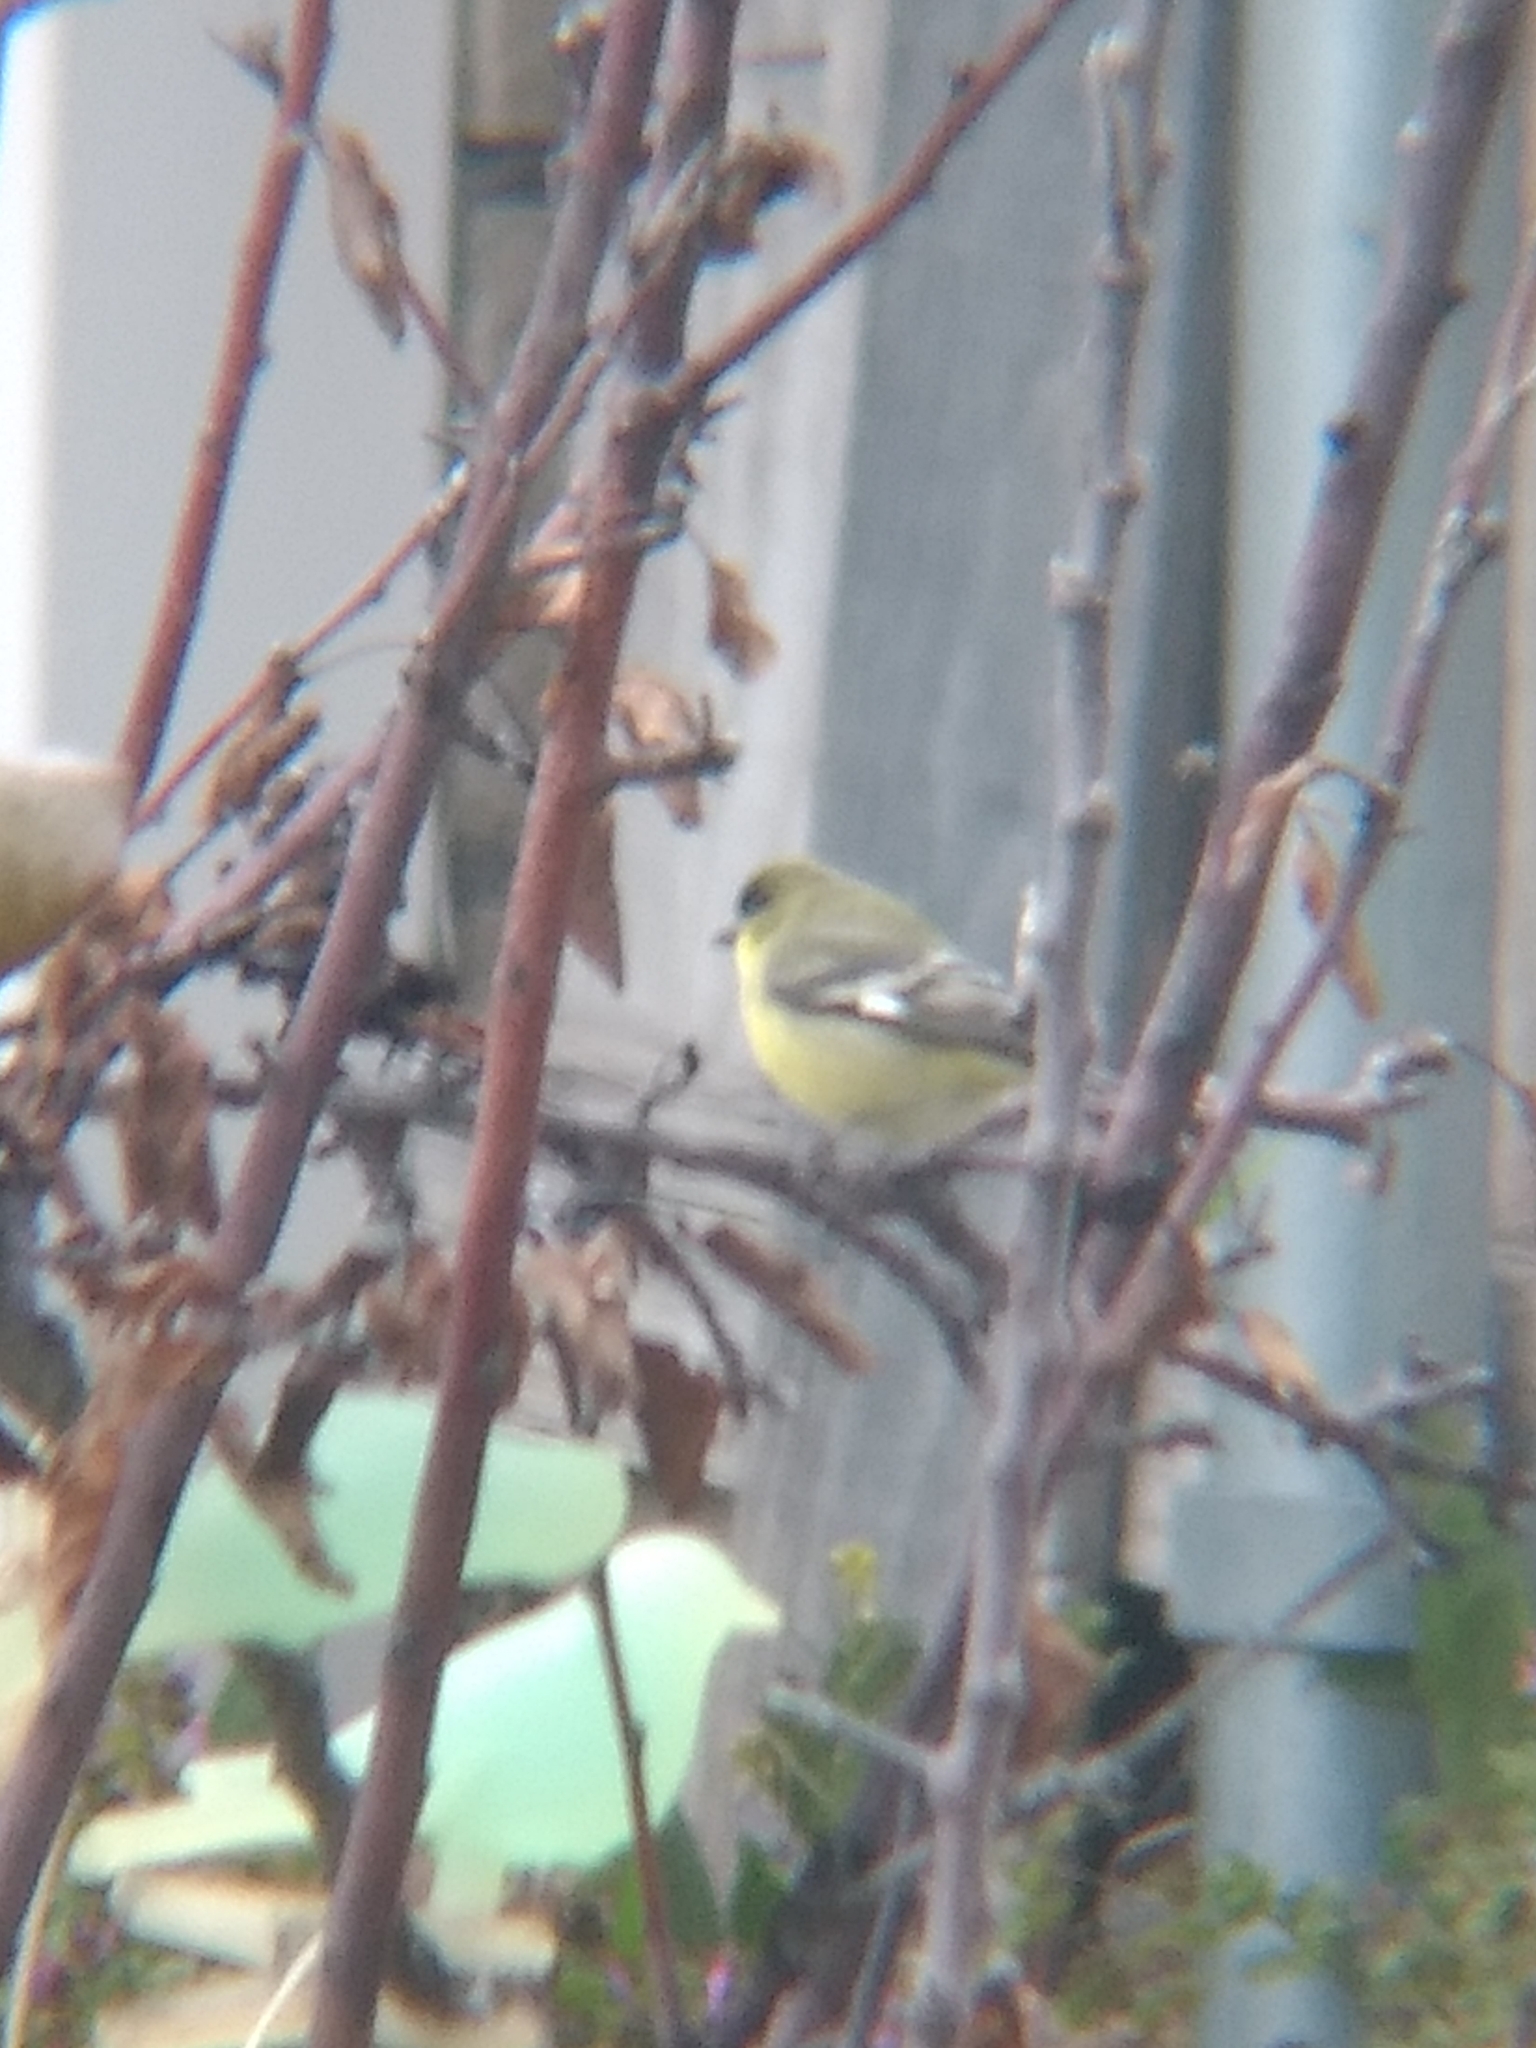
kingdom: Animalia
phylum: Chordata
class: Aves
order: Passeriformes
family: Fringillidae
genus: Spinus
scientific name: Spinus psaltria
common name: Lesser goldfinch
